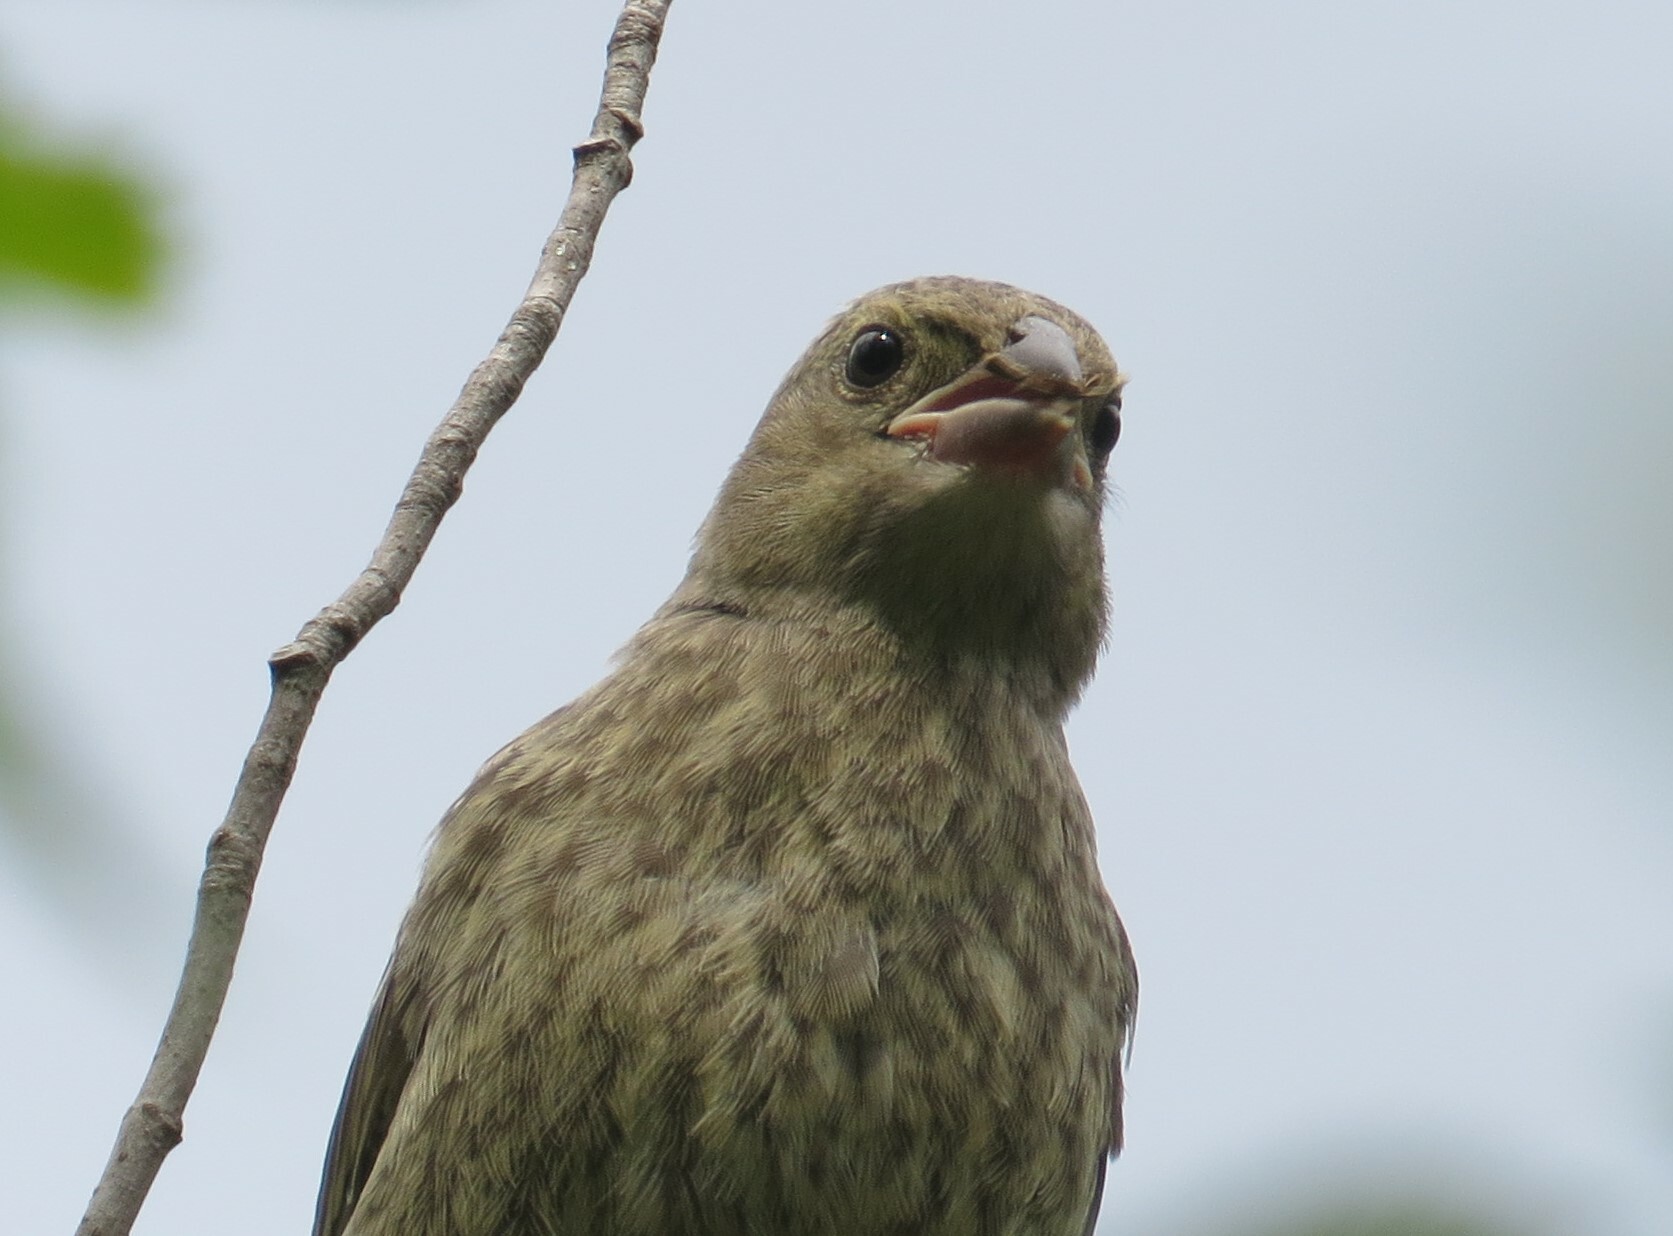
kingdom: Animalia
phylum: Chordata
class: Aves
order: Passeriformes
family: Icteridae
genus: Molothrus
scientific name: Molothrus ater
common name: Brown-headed cowbird
